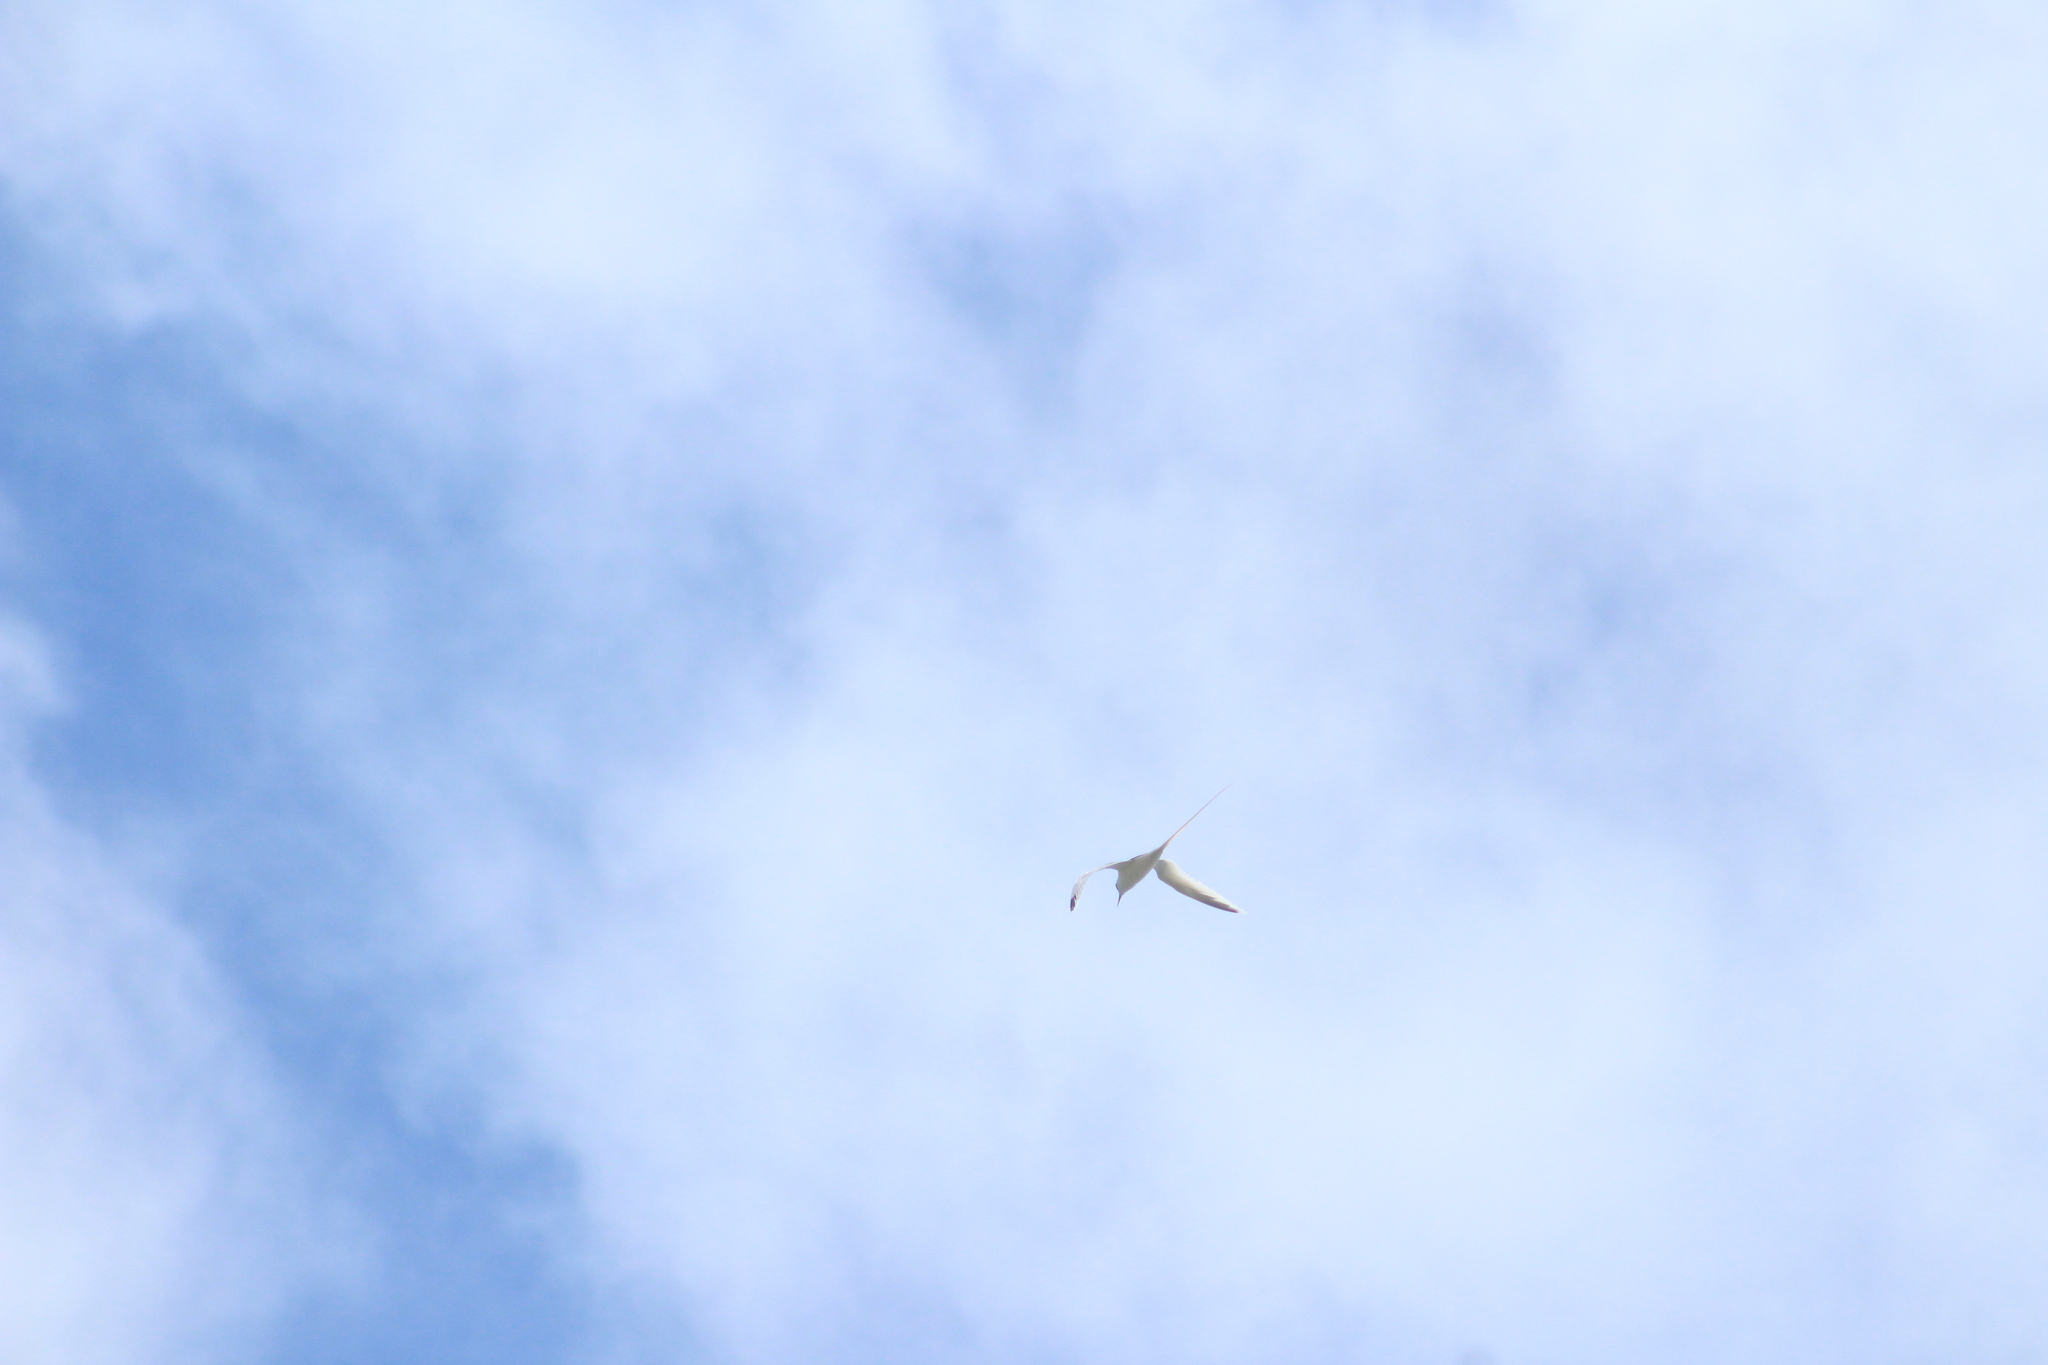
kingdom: Animalia
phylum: Chordata
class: Aves
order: Phaethontiformes
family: Phaethontidae
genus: Phaethon
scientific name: Phaethon lepturus
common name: White-tailed tropicbird
